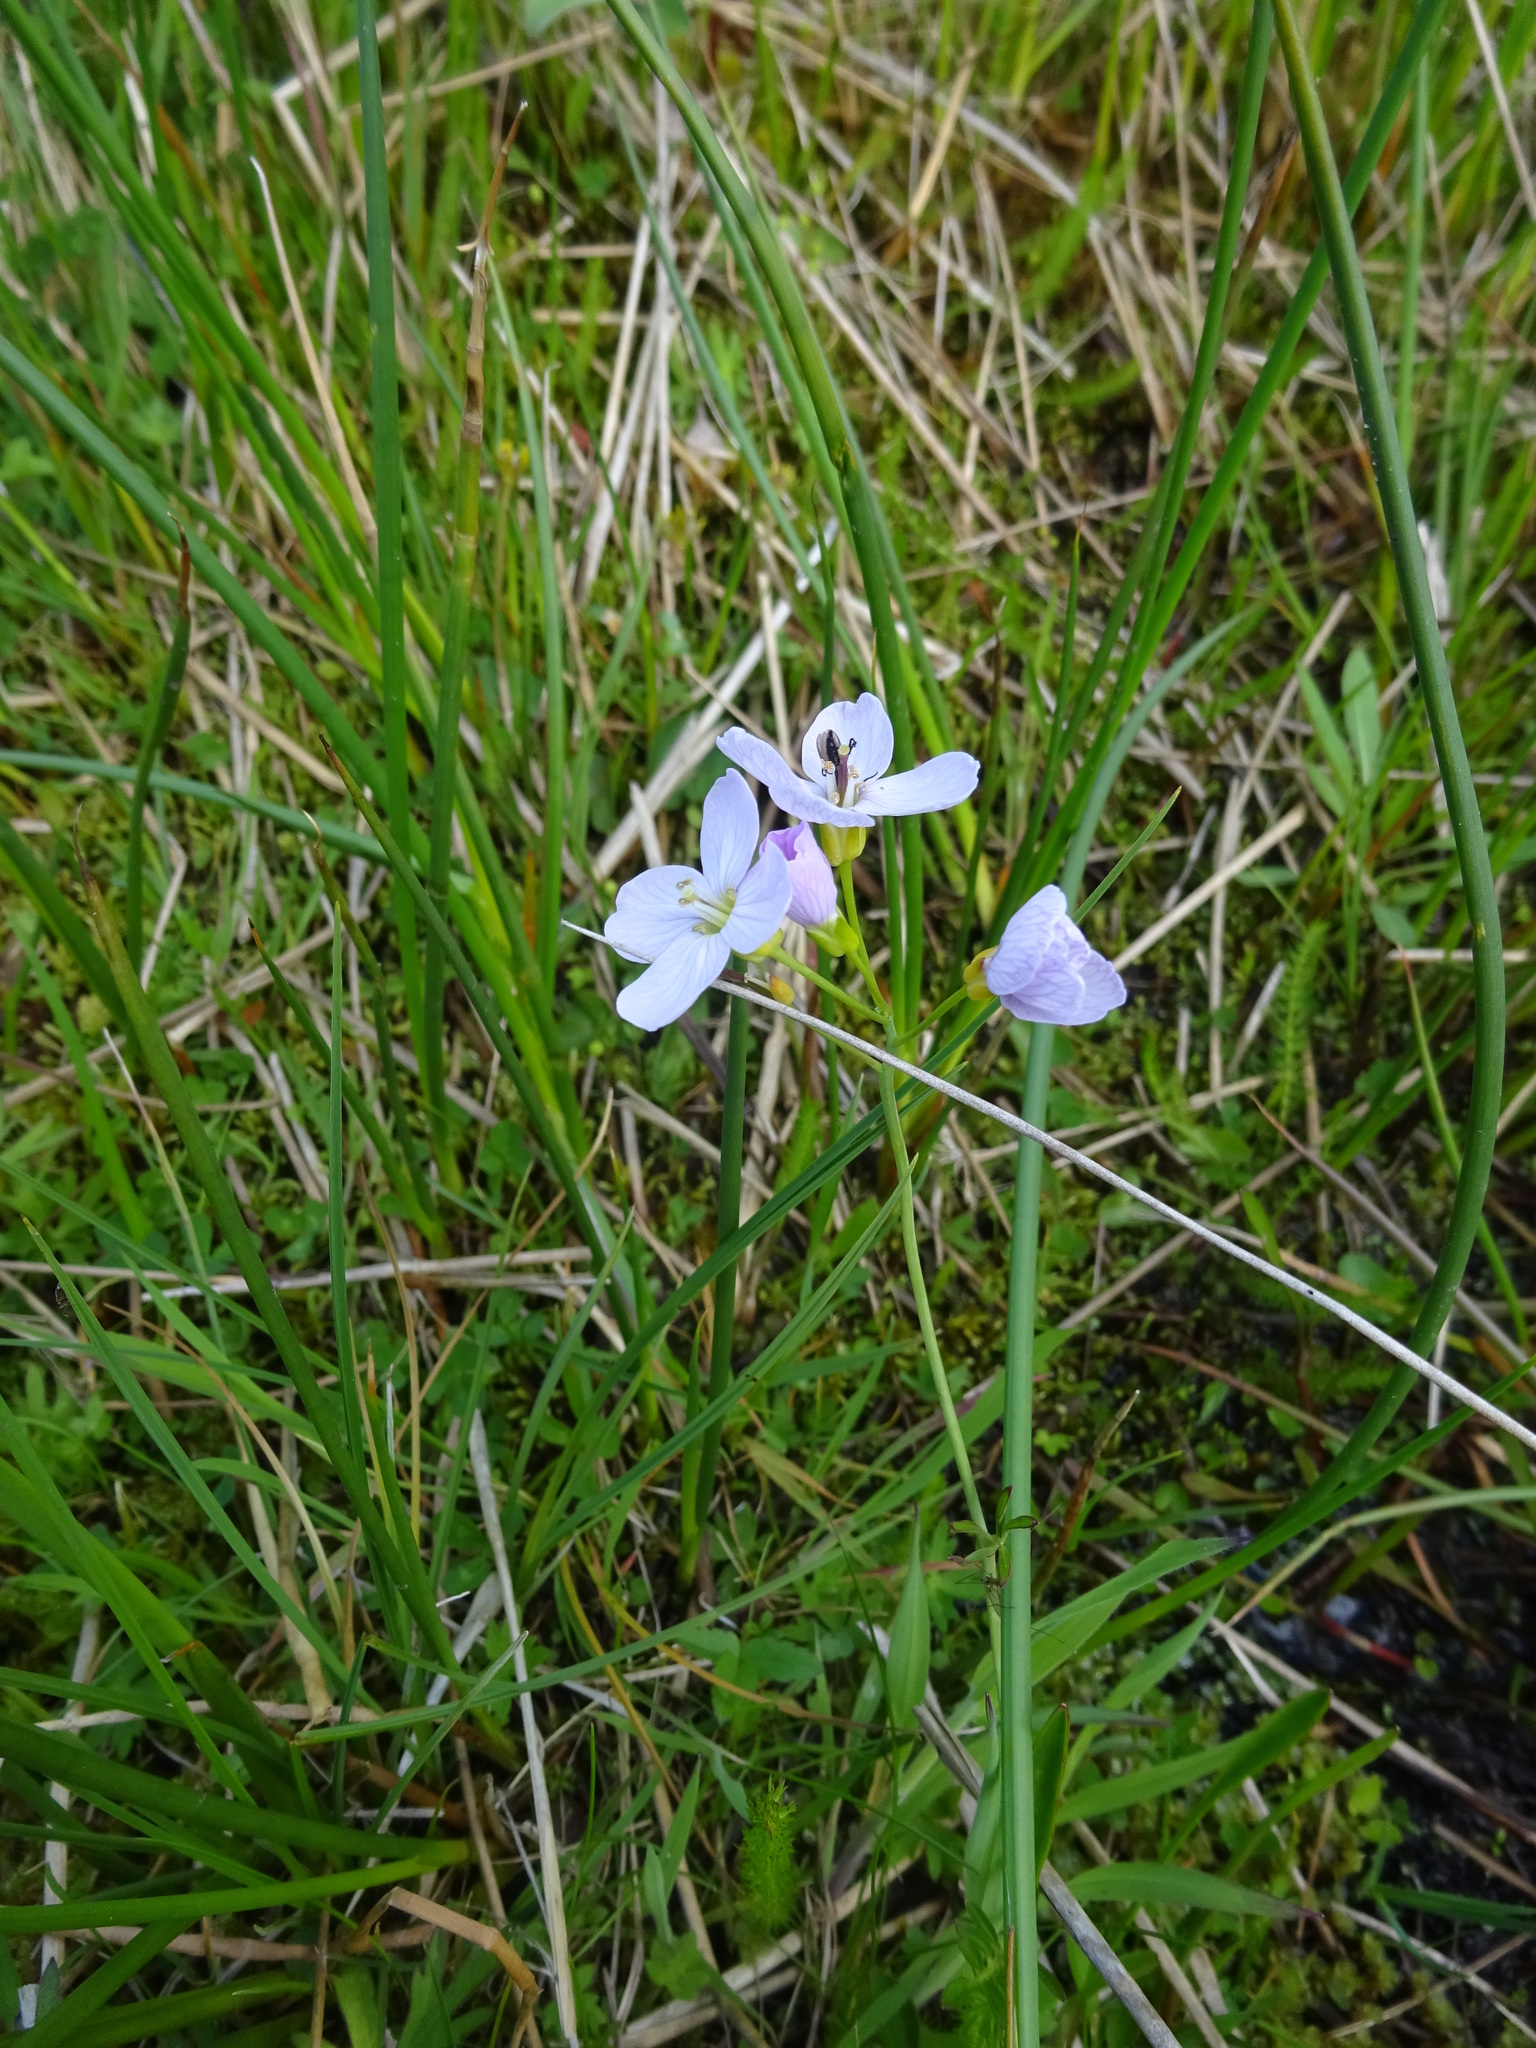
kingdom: Plantae
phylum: Tracheophyta
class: Magnoliopsida
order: Brassicales
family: Brassicaceae
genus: Cardamine
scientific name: Cardamine pratensis
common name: Cuckoo flower
